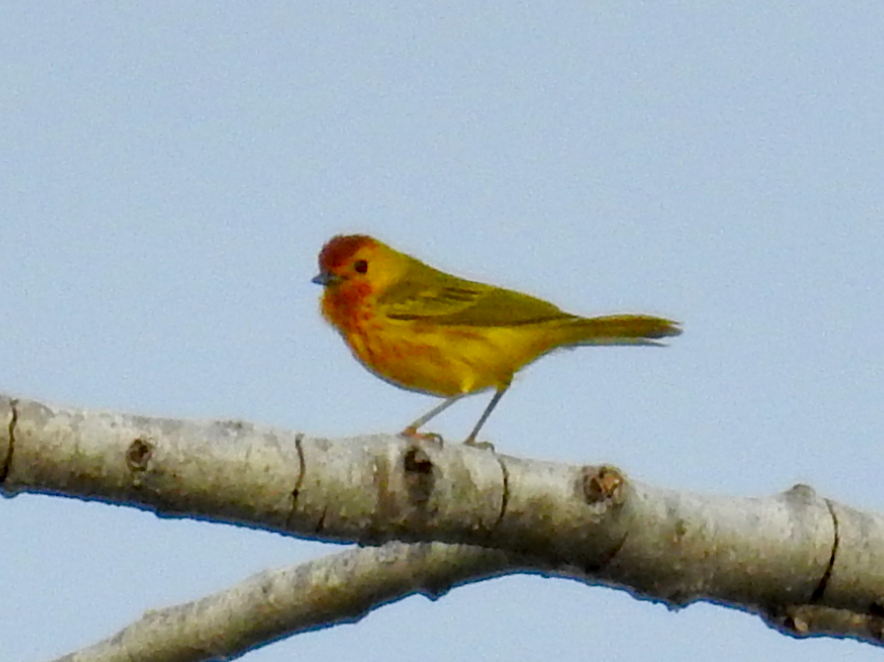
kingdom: Animalia
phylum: Chordata
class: Aves
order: Passeriformes
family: Parulidae
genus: Setophaga
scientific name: Setophaga petechia
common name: Yellow warbler
